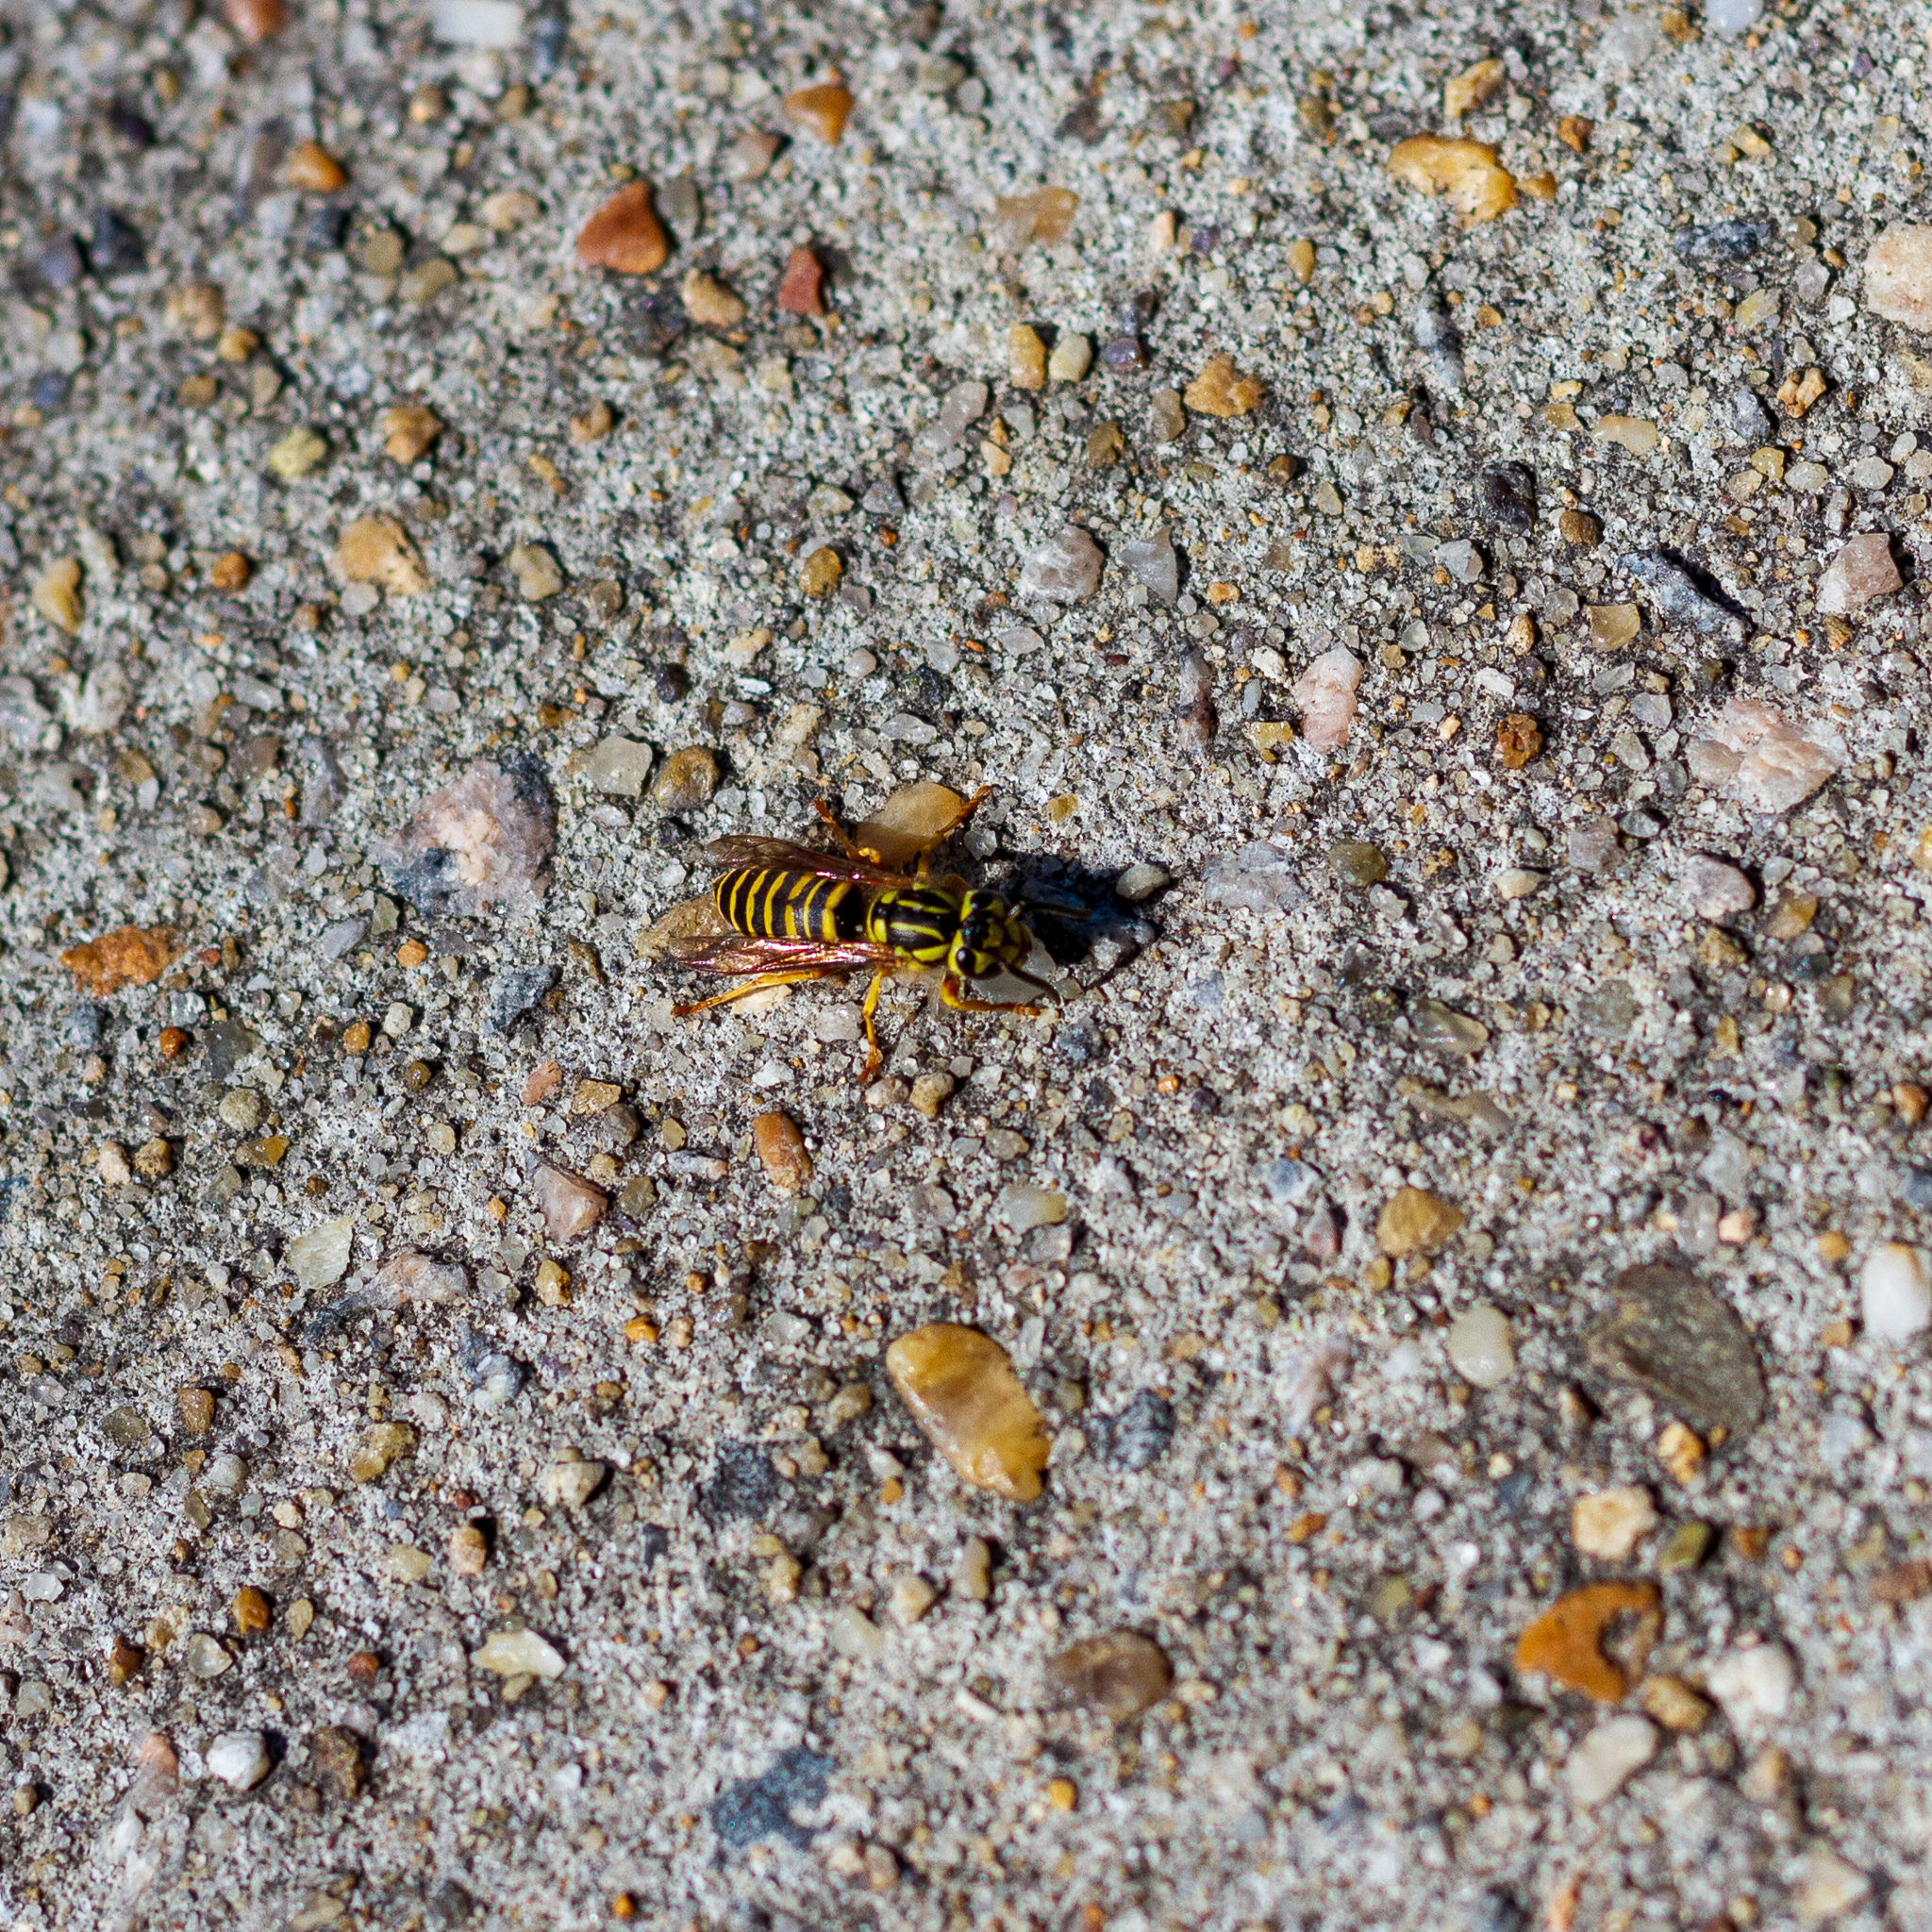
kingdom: Animalia
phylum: Arthropoda
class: Insecta
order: Hymenoptera
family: Vespidae
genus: Vespula
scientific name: Vespula squamosa
